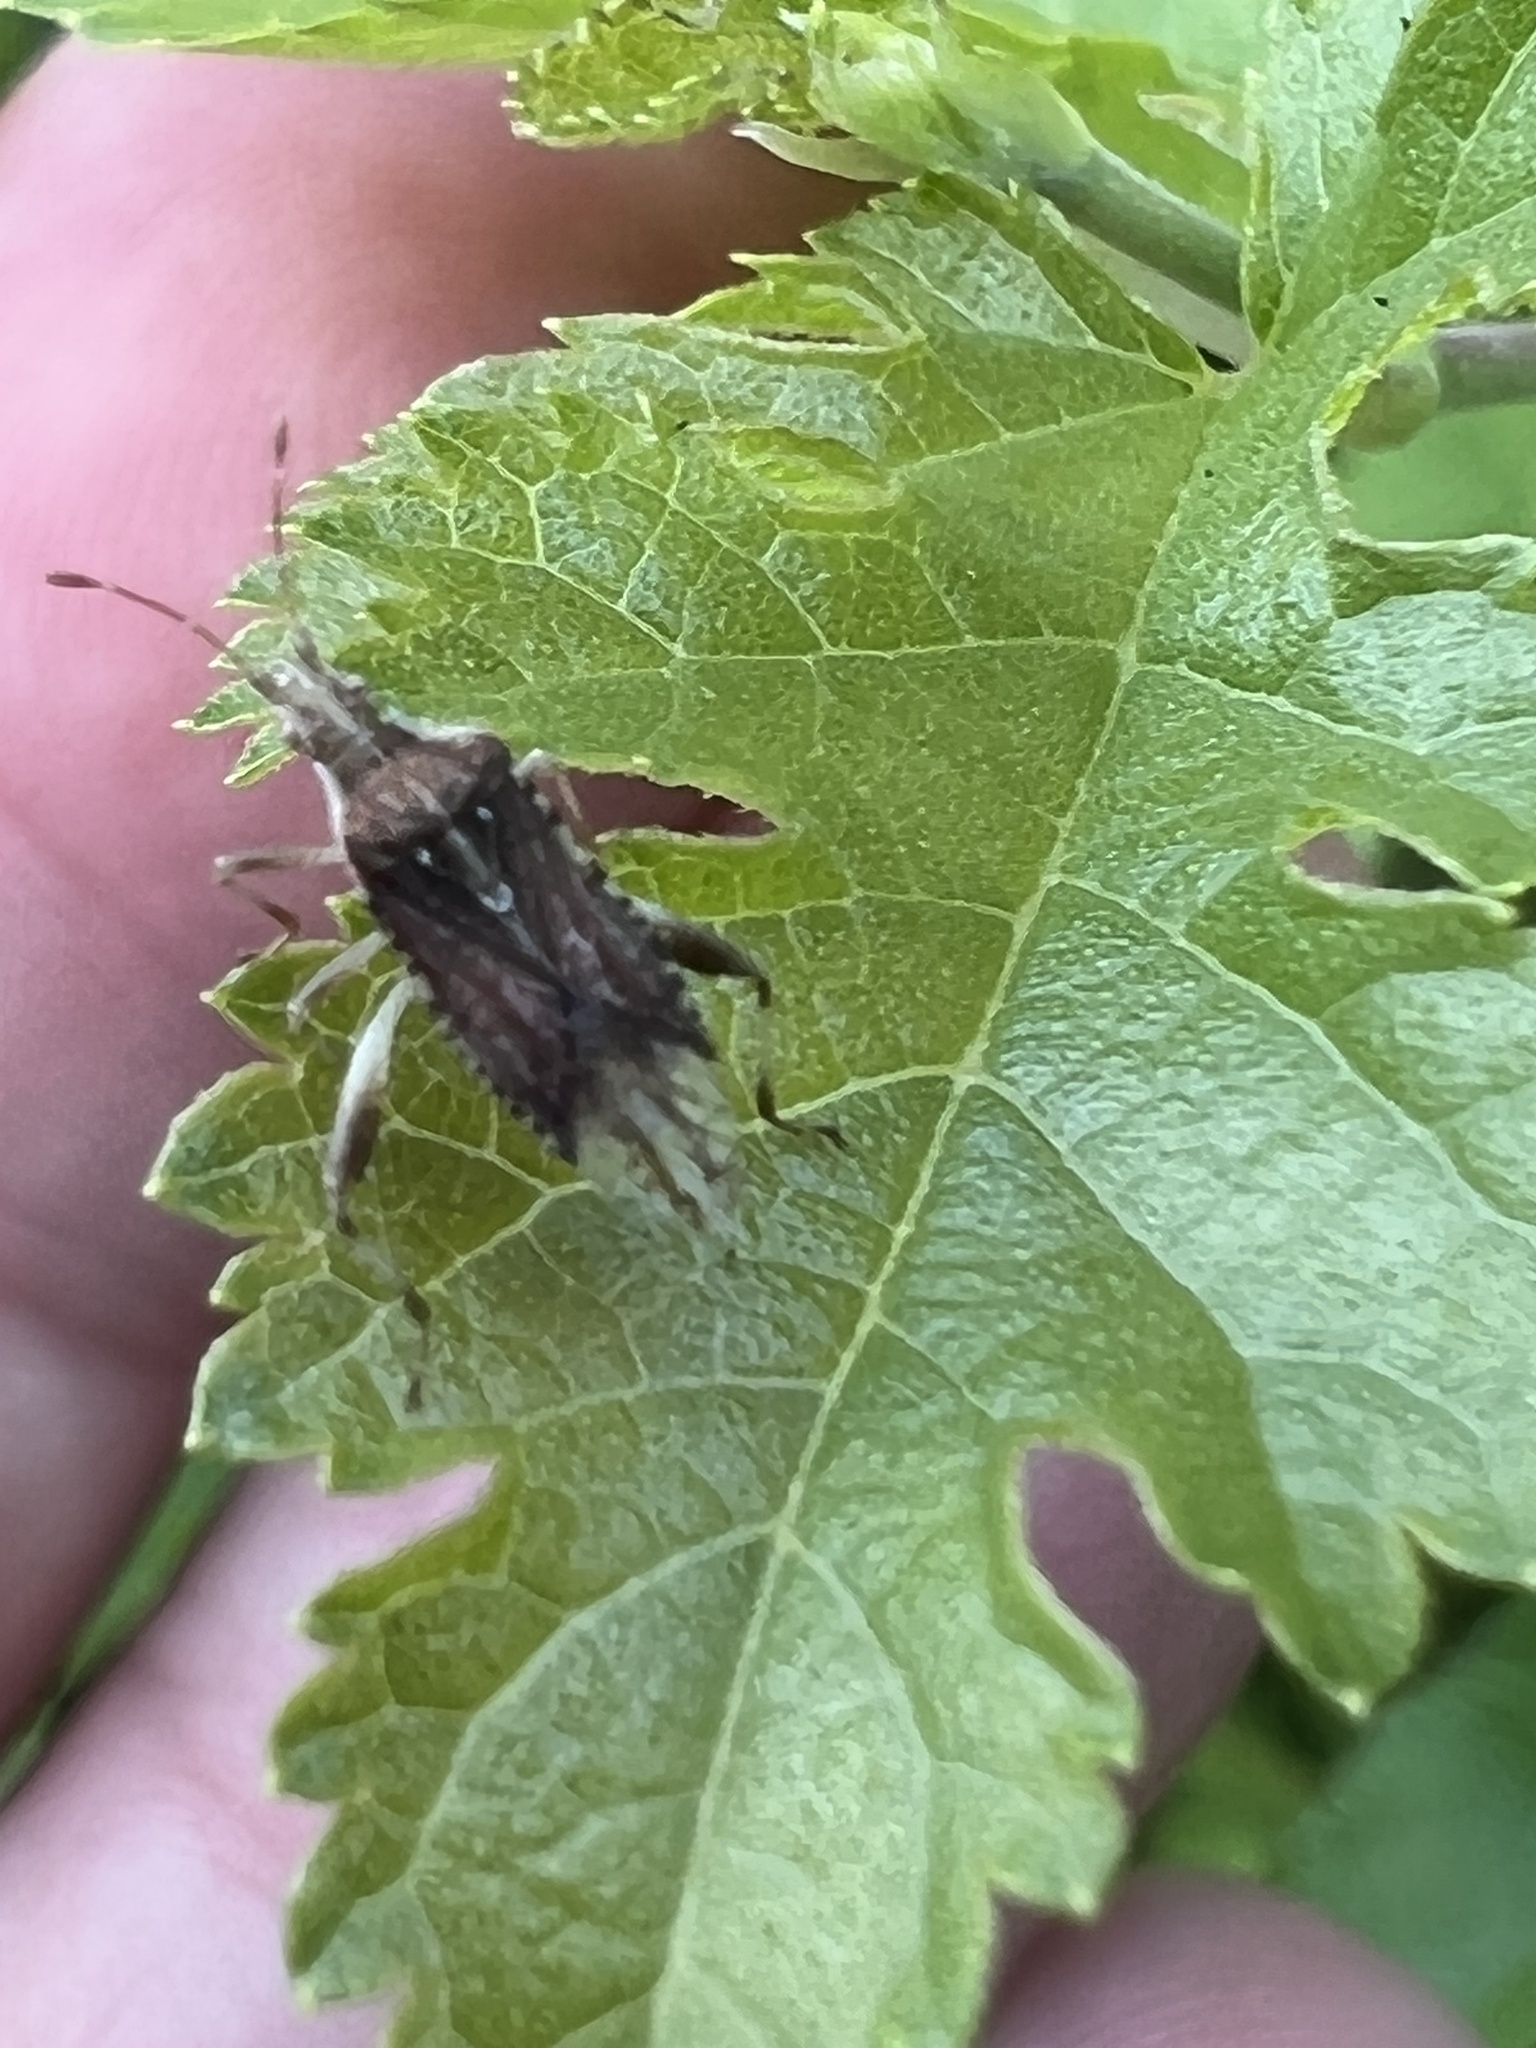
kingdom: Animalia
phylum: Arthropoda
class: Insecta
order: Hemiptera
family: Rhopalidae
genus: Harmostes
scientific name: Harmostes fraterculus
